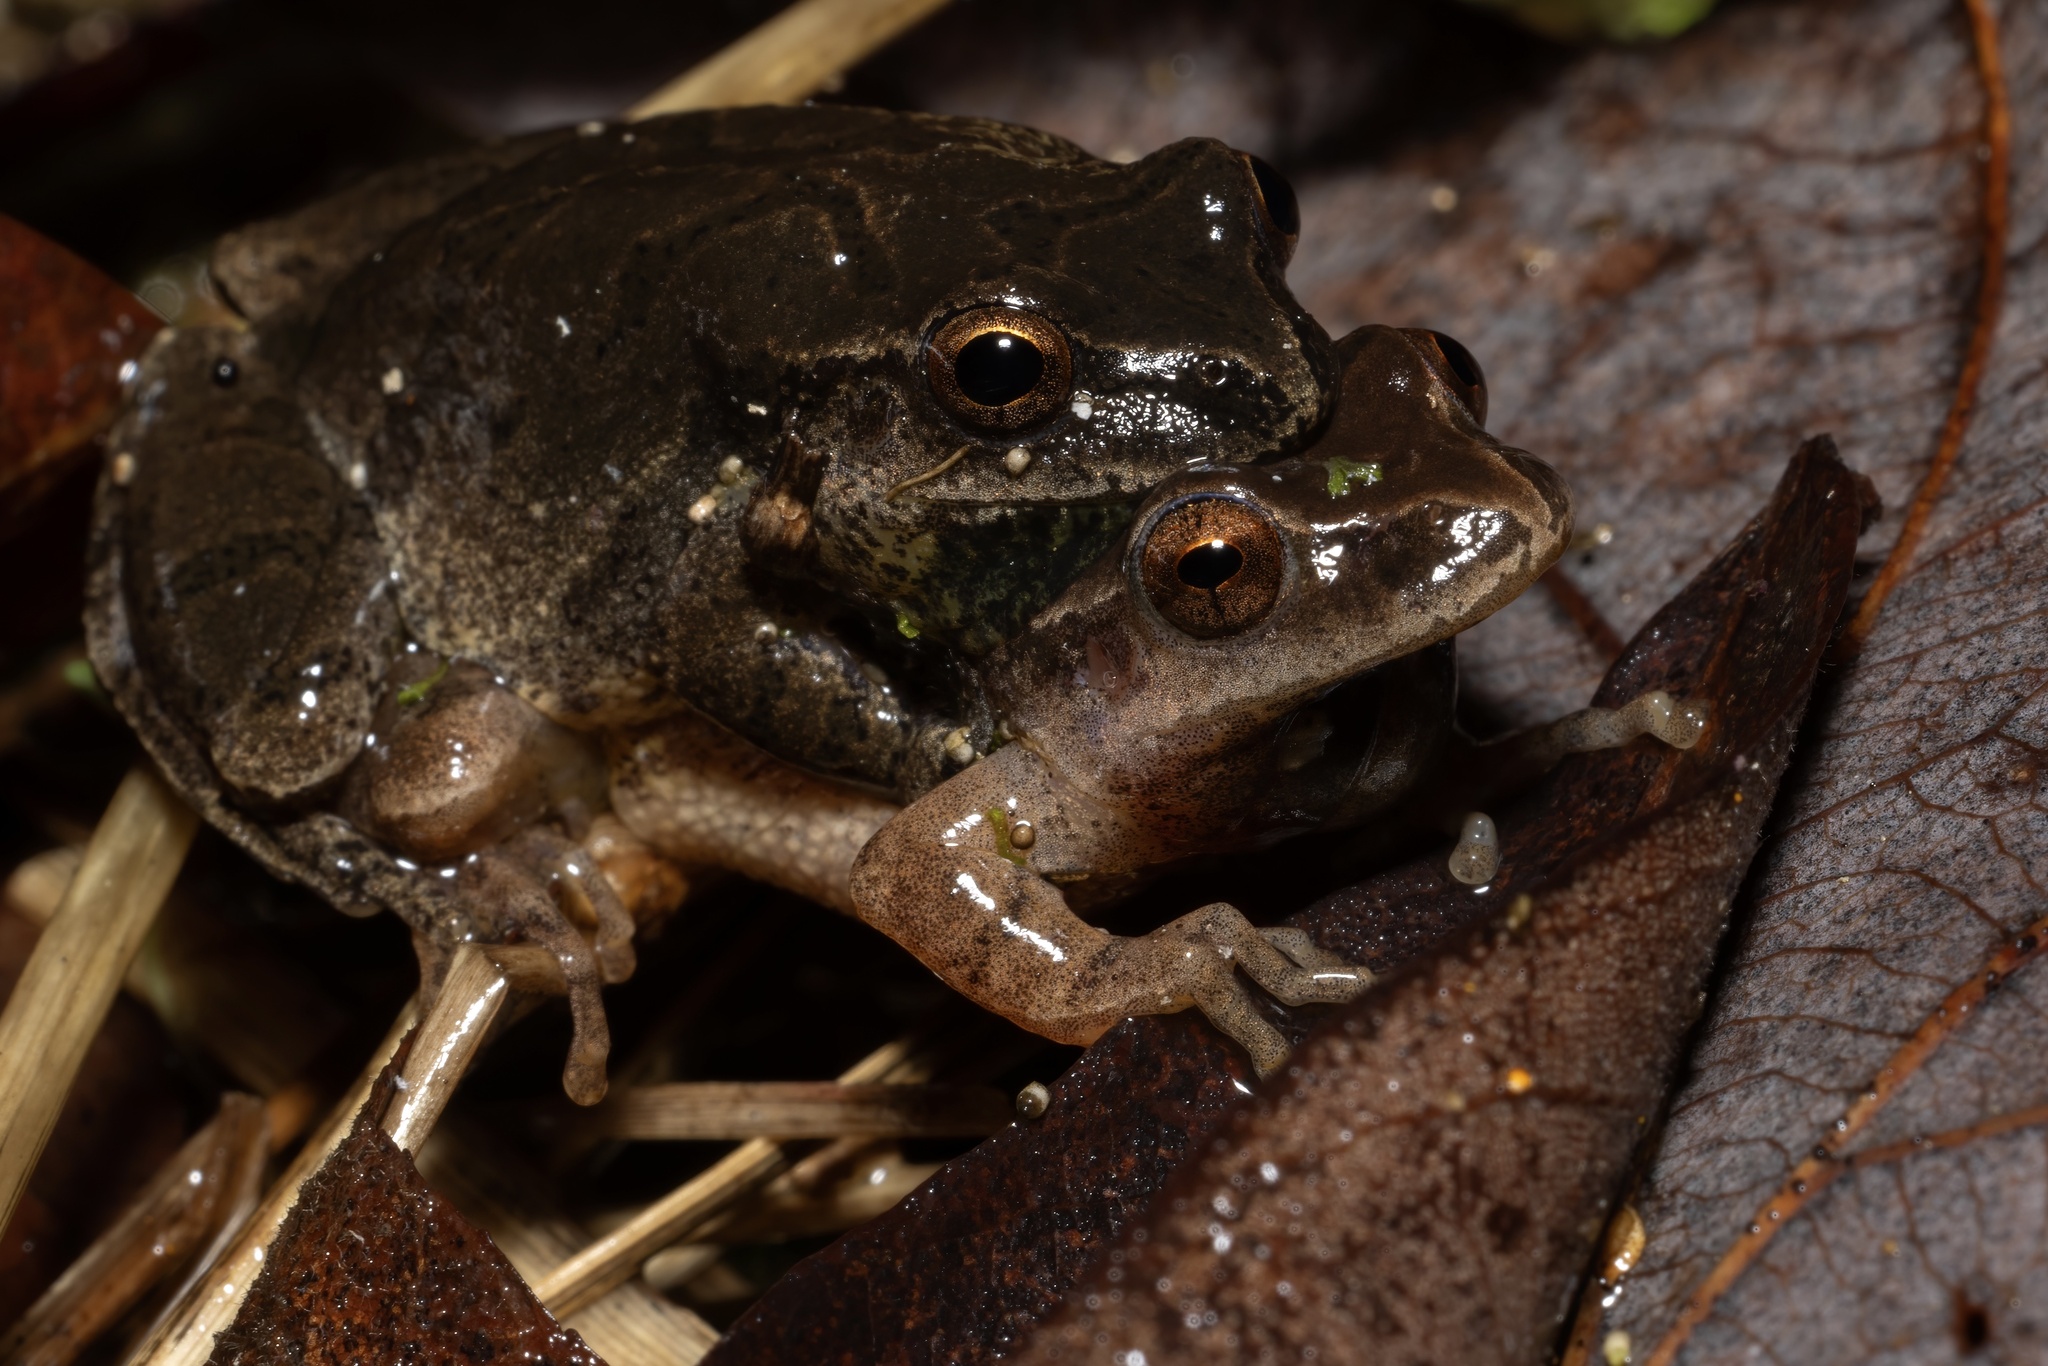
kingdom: Animalia
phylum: Chordata
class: Amphibia
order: Anura
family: Hylidae
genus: Pseudacris
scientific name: Pseudacris crucifer
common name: Spring peeper
